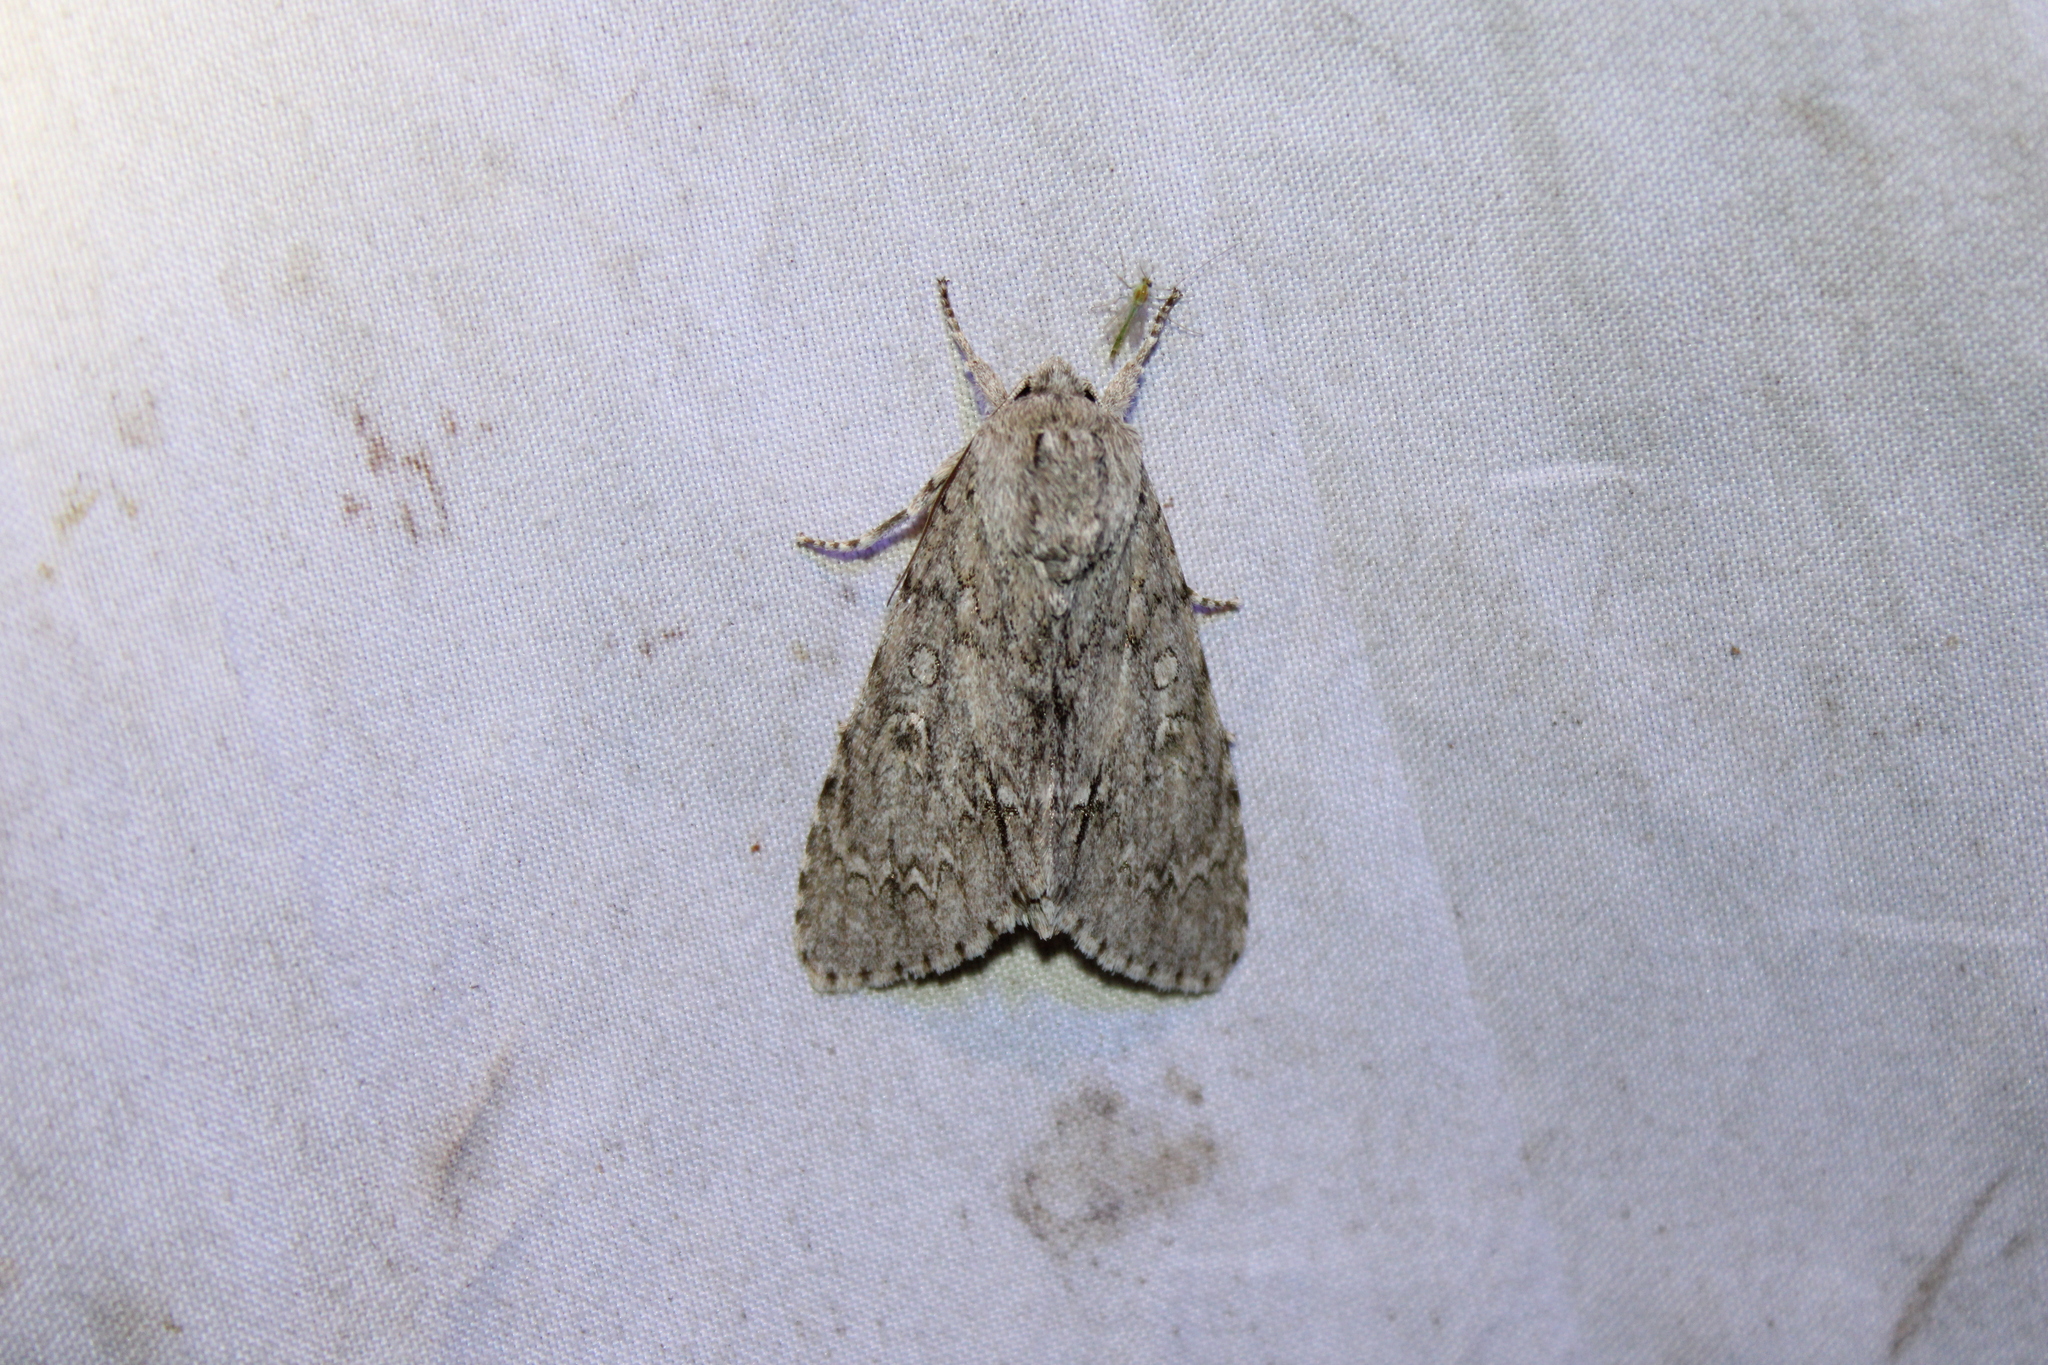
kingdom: Animalia
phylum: Arthropoda
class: Insecta
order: Lepidoptera
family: Noctuidae
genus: Acronicta
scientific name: Acronicta americana
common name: American dagger
